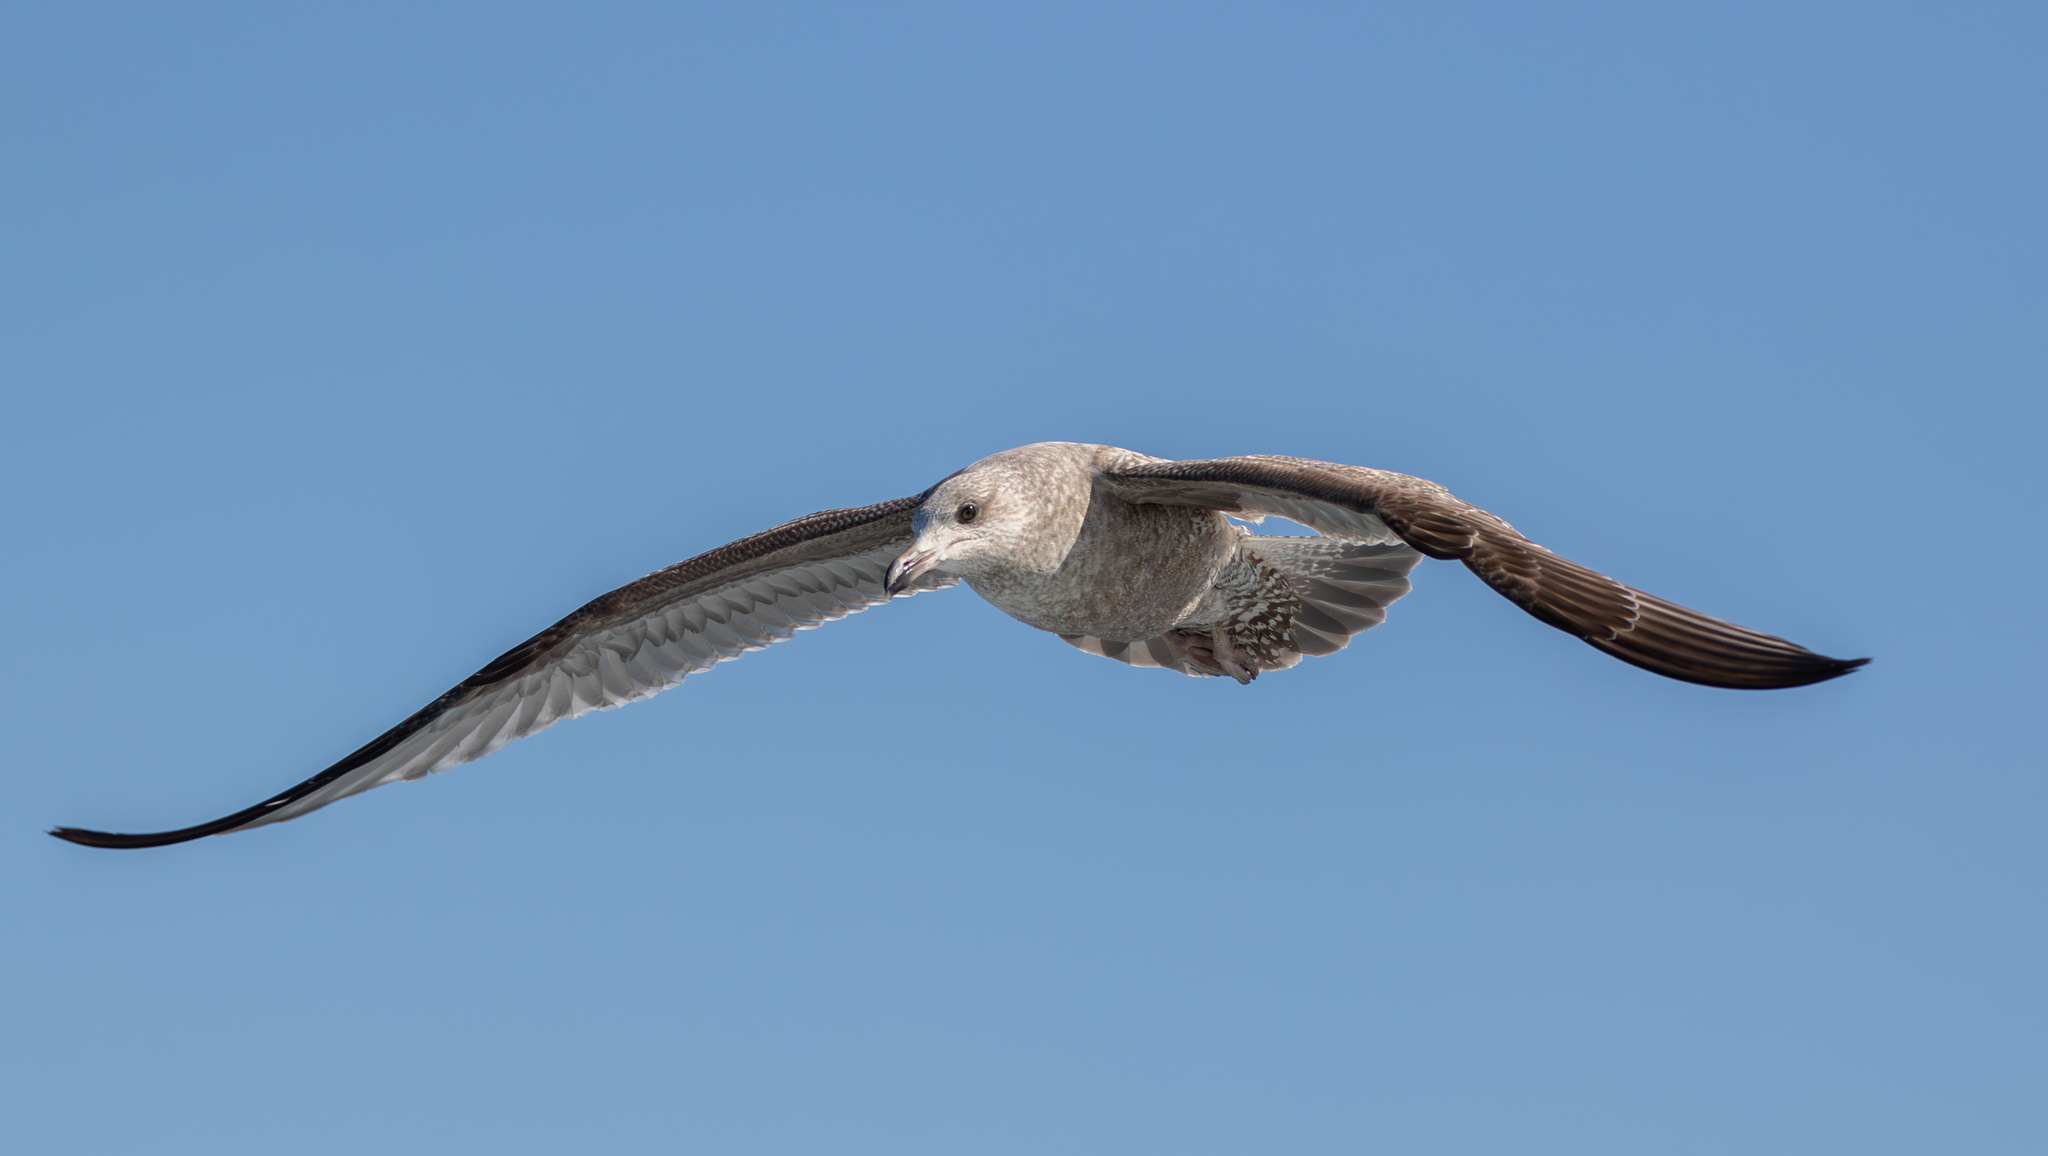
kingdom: Animalia
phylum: Chordata
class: Aves
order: Charadriiformes
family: Laridae
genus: Larus
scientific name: Larus argentatus
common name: Herring gull
